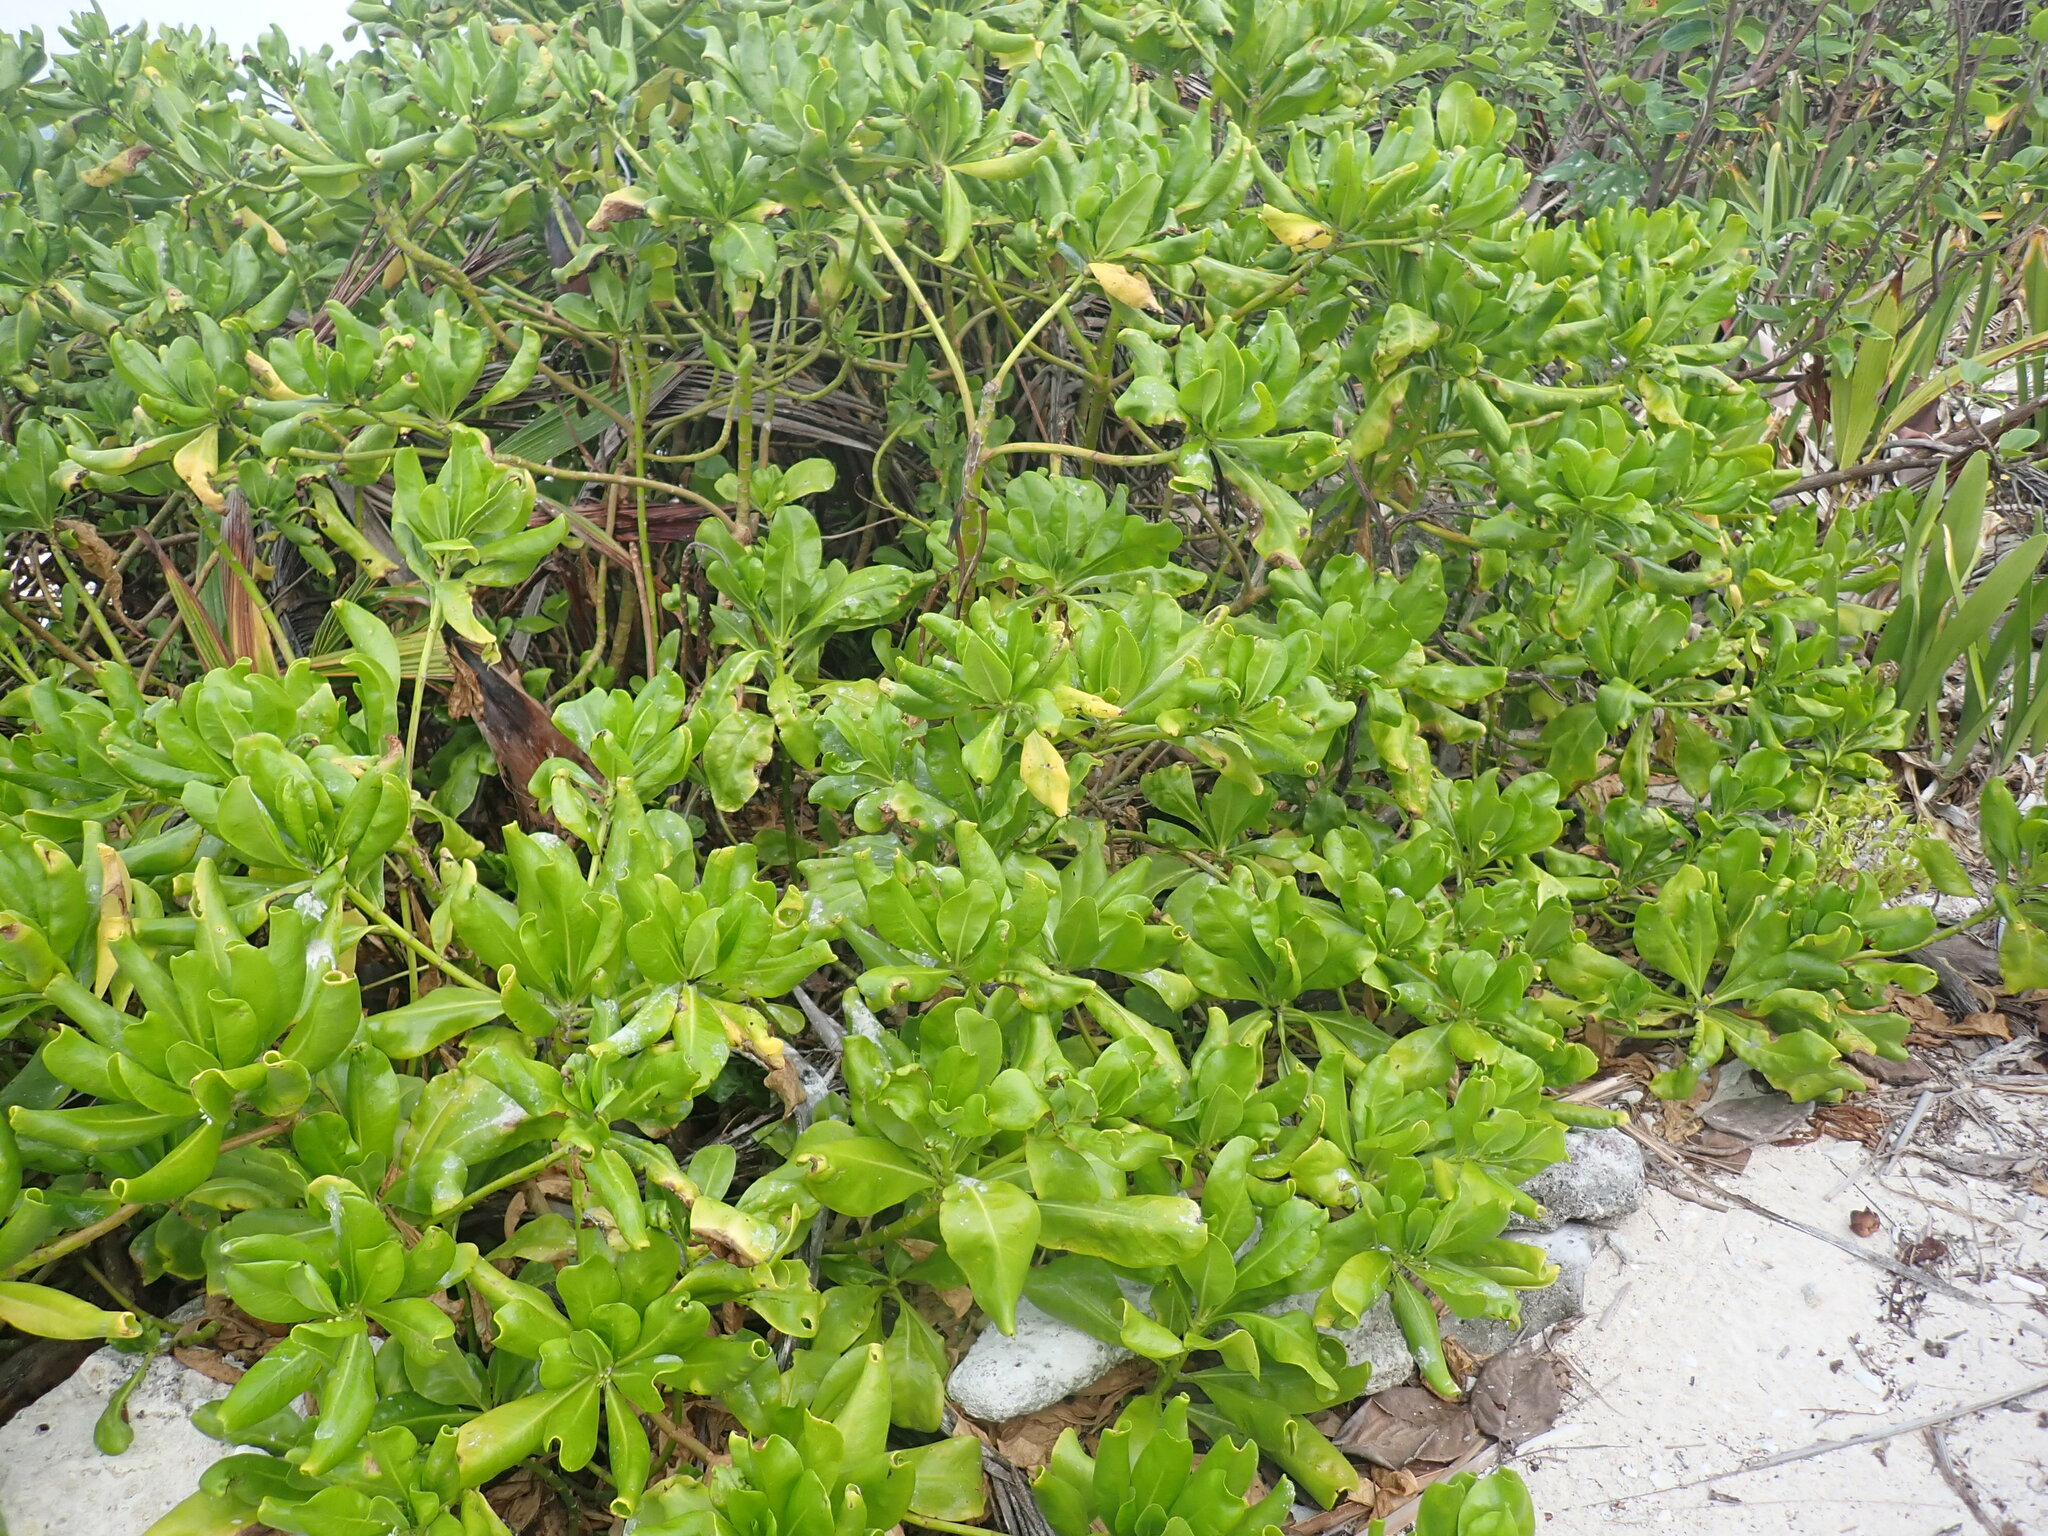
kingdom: Plantae
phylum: Tracheophyta
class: Magnoliopsida
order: Asterales
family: Goodeniaceae
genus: Scaevola
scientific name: Scaevola taccada
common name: Sea lettucetree
